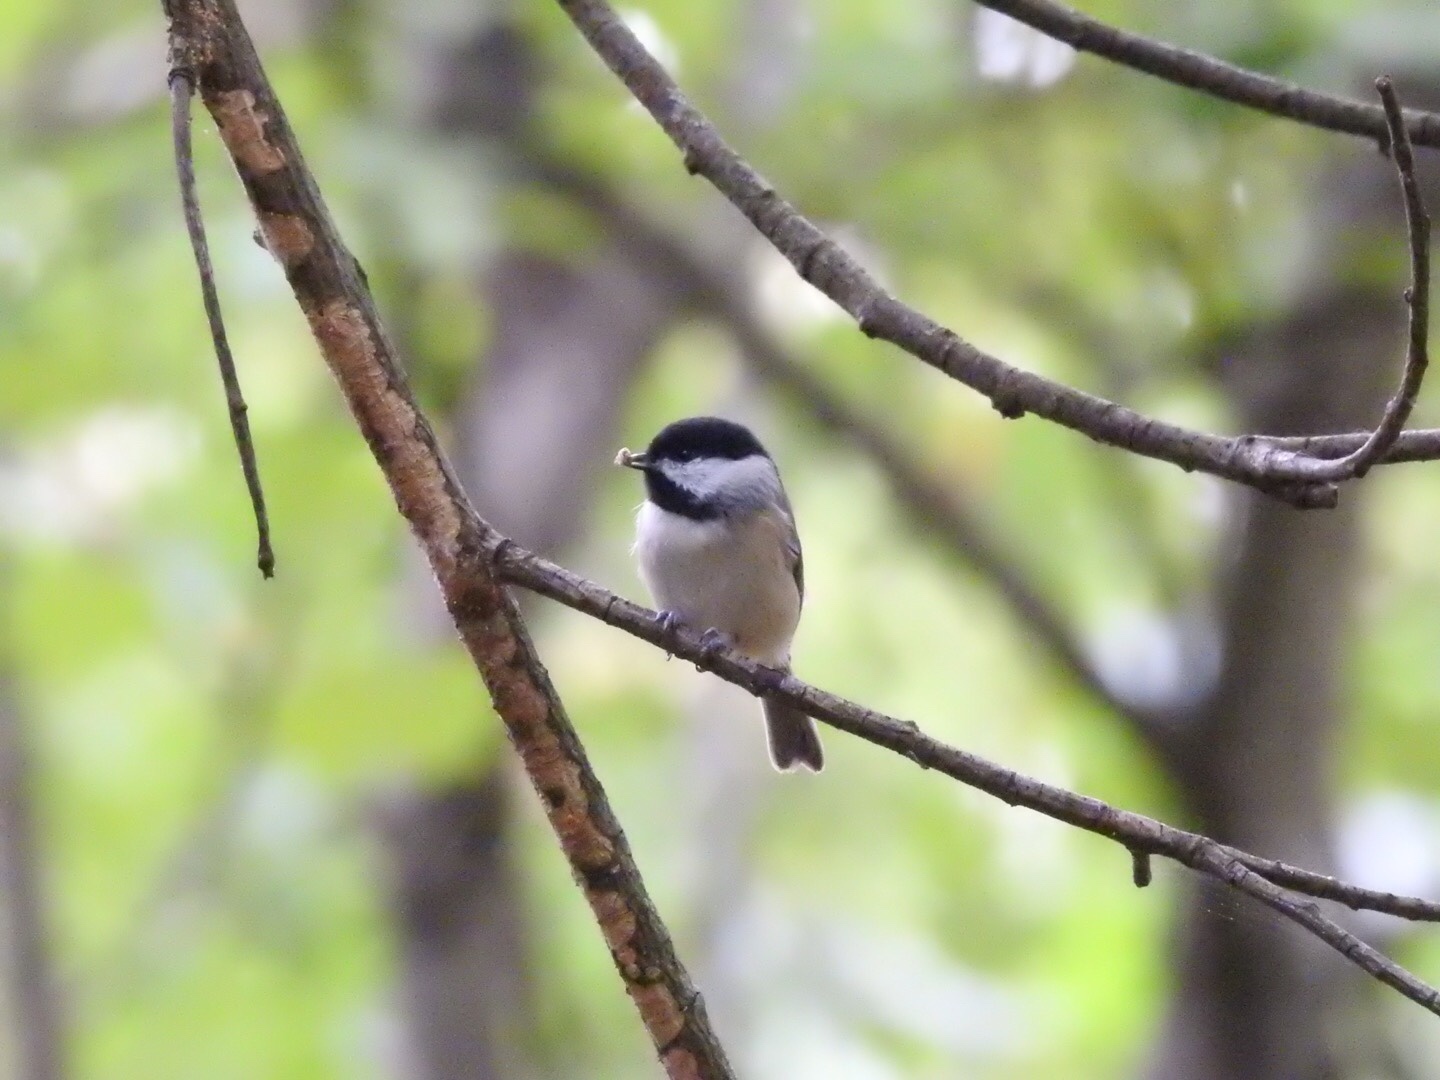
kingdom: Animalia
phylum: Chordata
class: Aves
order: Passeriformes
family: Paridae
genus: Poecile
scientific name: Poecile carolinensis
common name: Carolina chickadee
